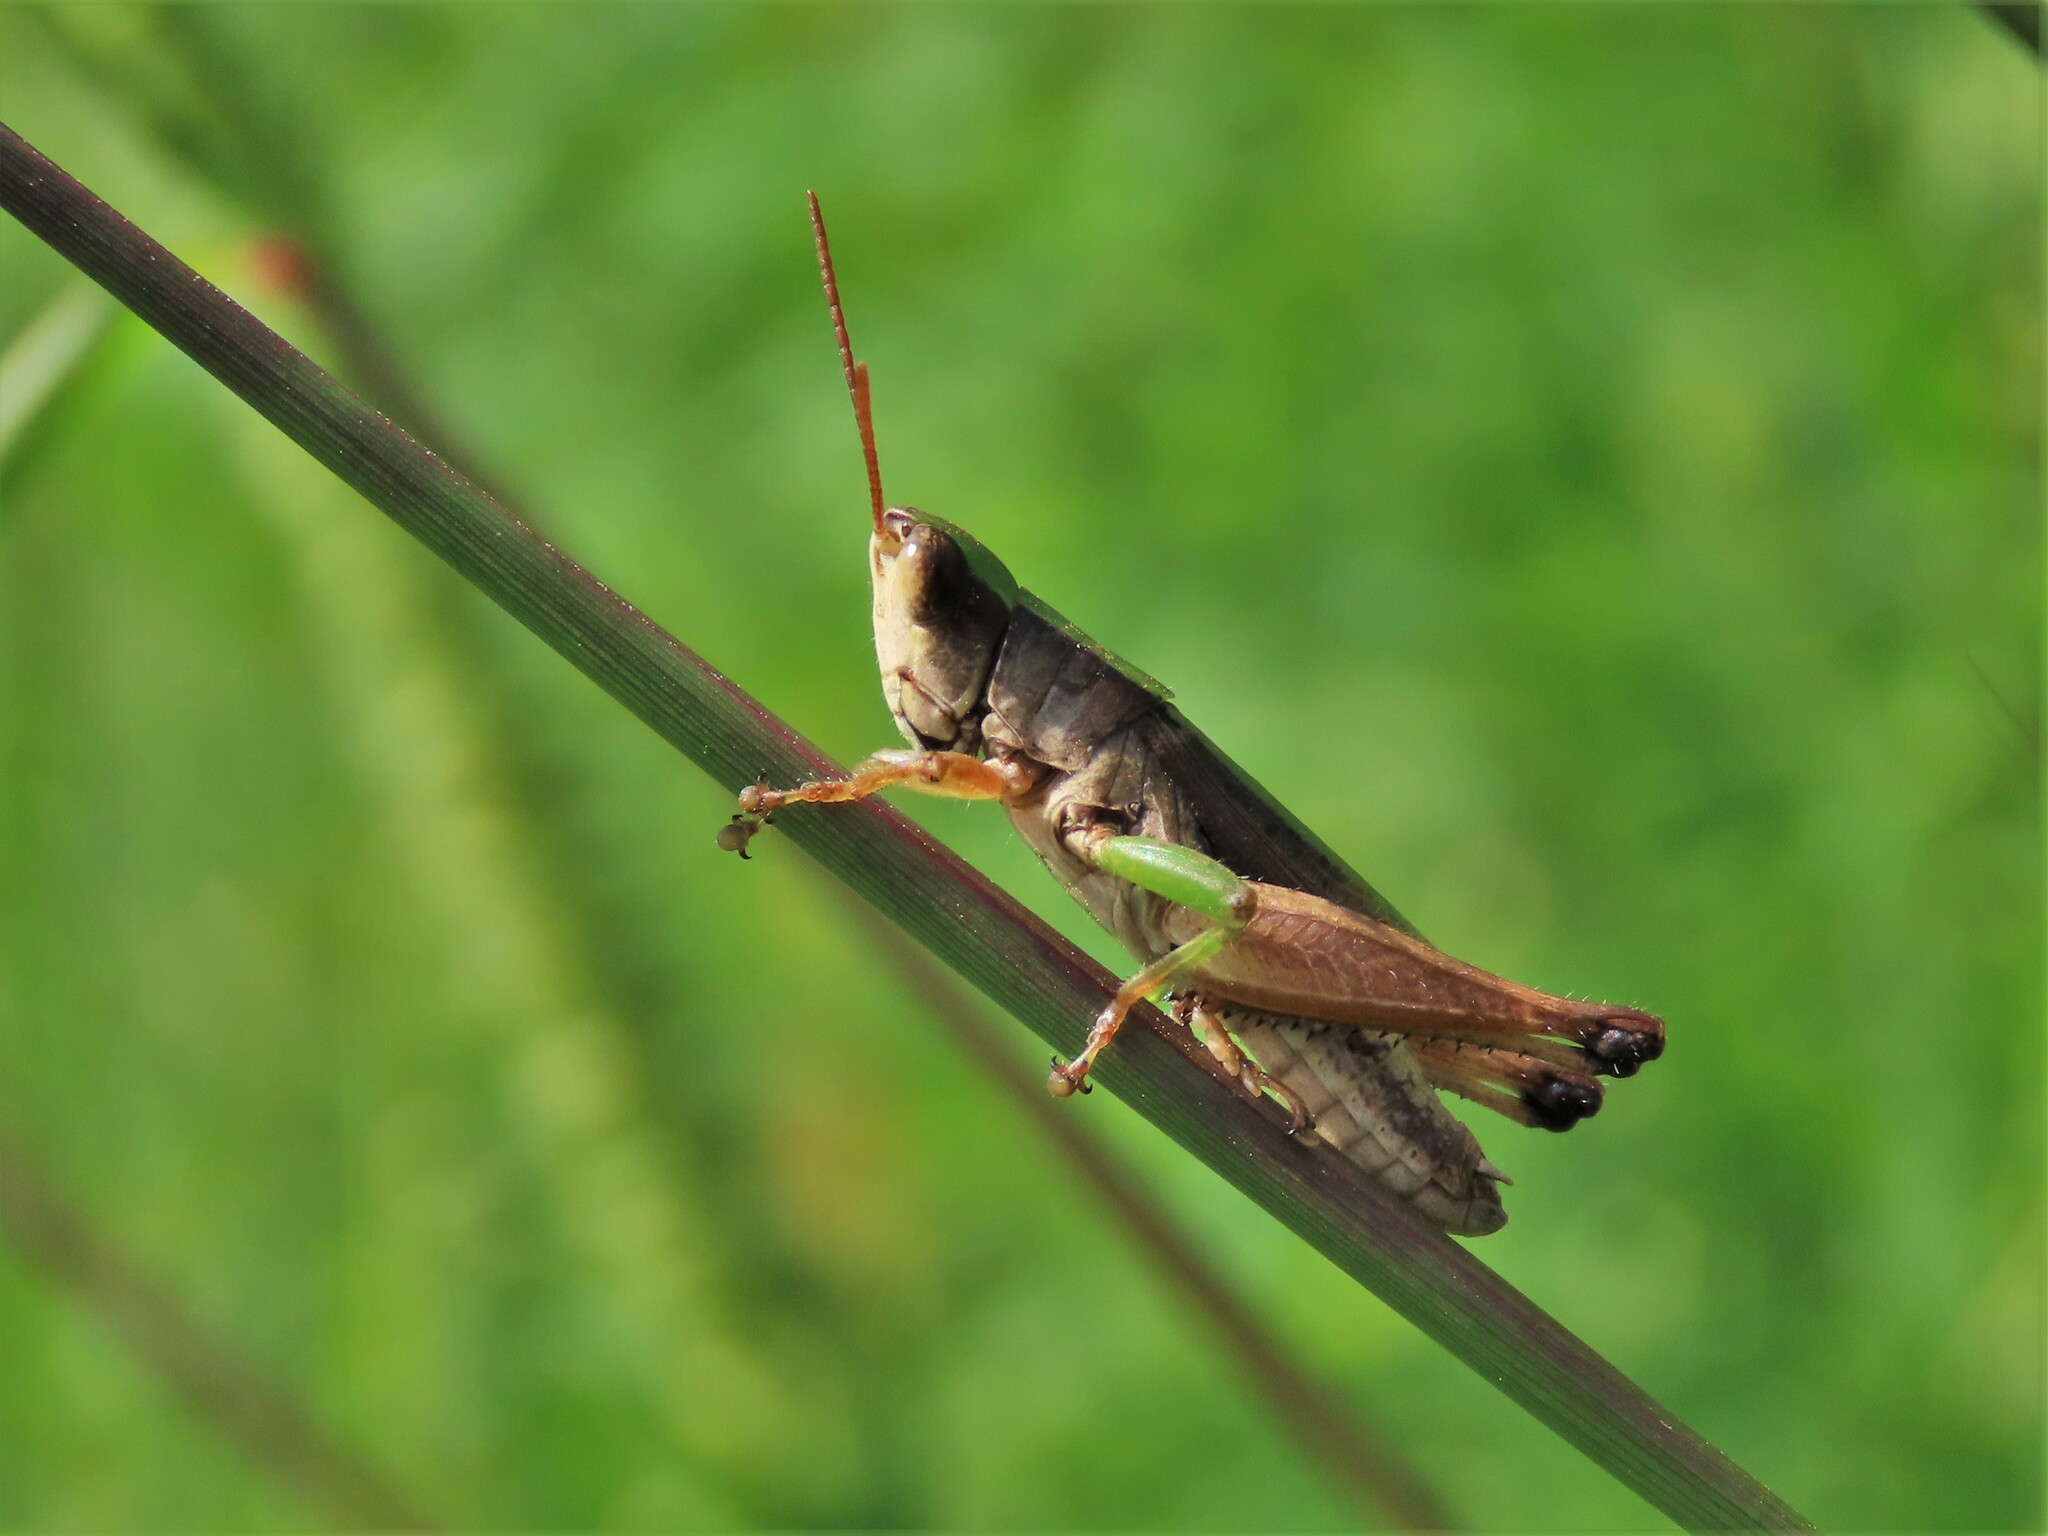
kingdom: Animalia
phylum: Arthropoda
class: Insecta
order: Orthoptera
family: Acrididae
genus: Dichromorpha
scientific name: Dichromorpha viridis
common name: Short-winged green grasshopper
